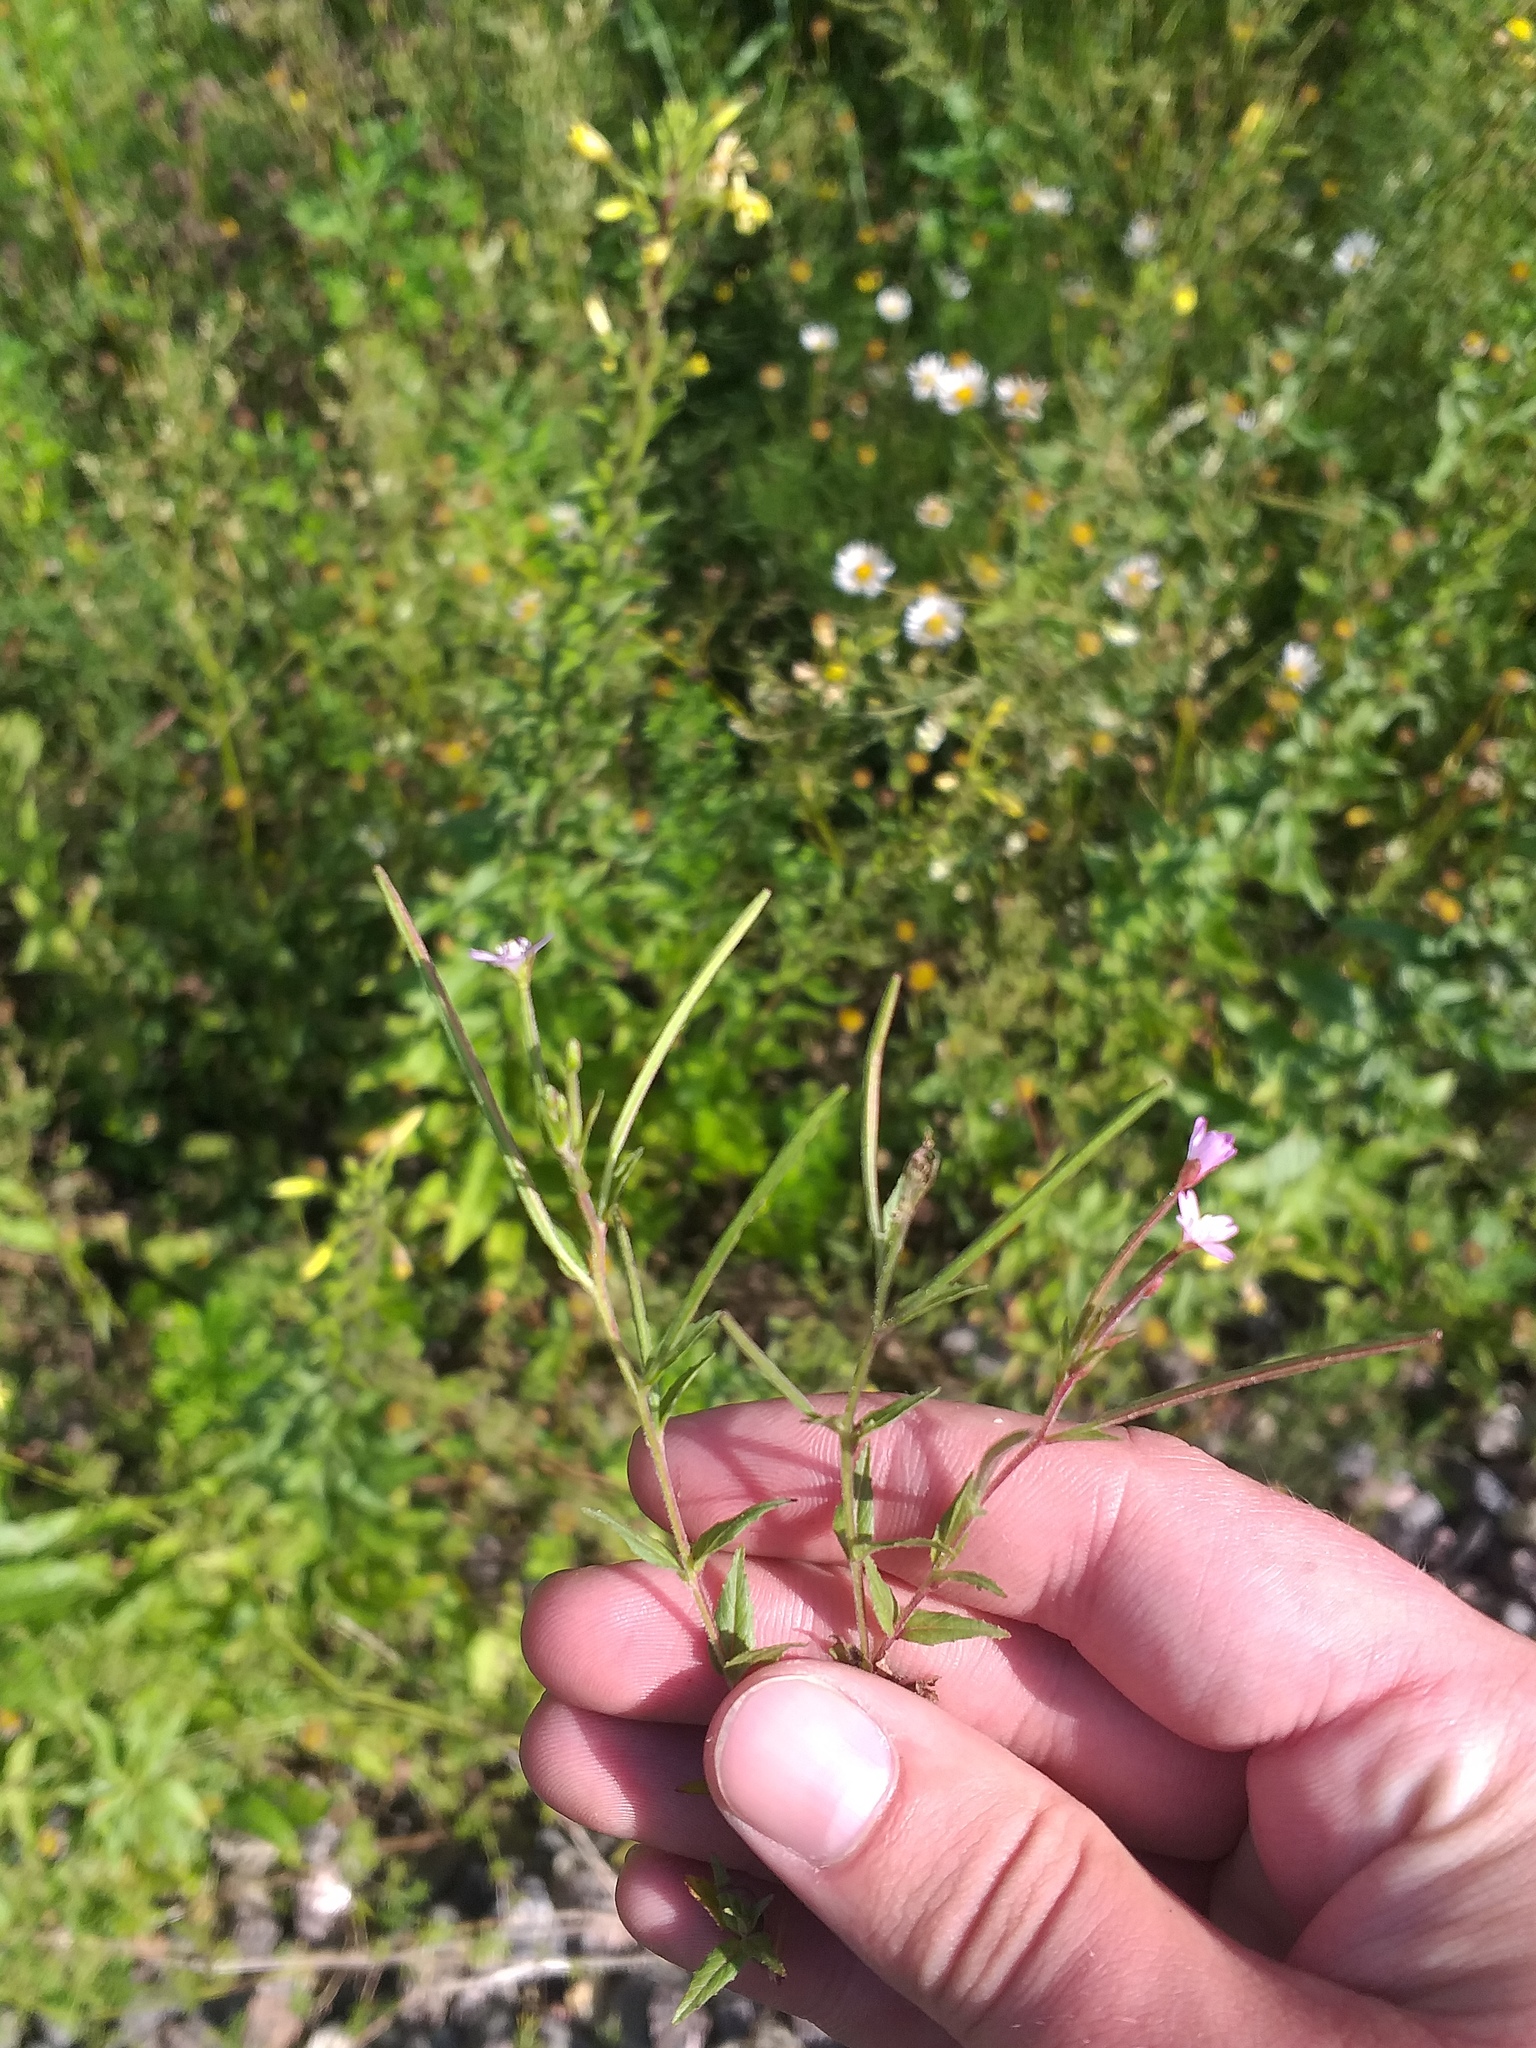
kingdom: Plantae
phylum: Tracheophyta
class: Magnoliopsida
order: Myrtales
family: Onagraceae
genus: Epilobium
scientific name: Epilobium ciliatum
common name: American willowherb
